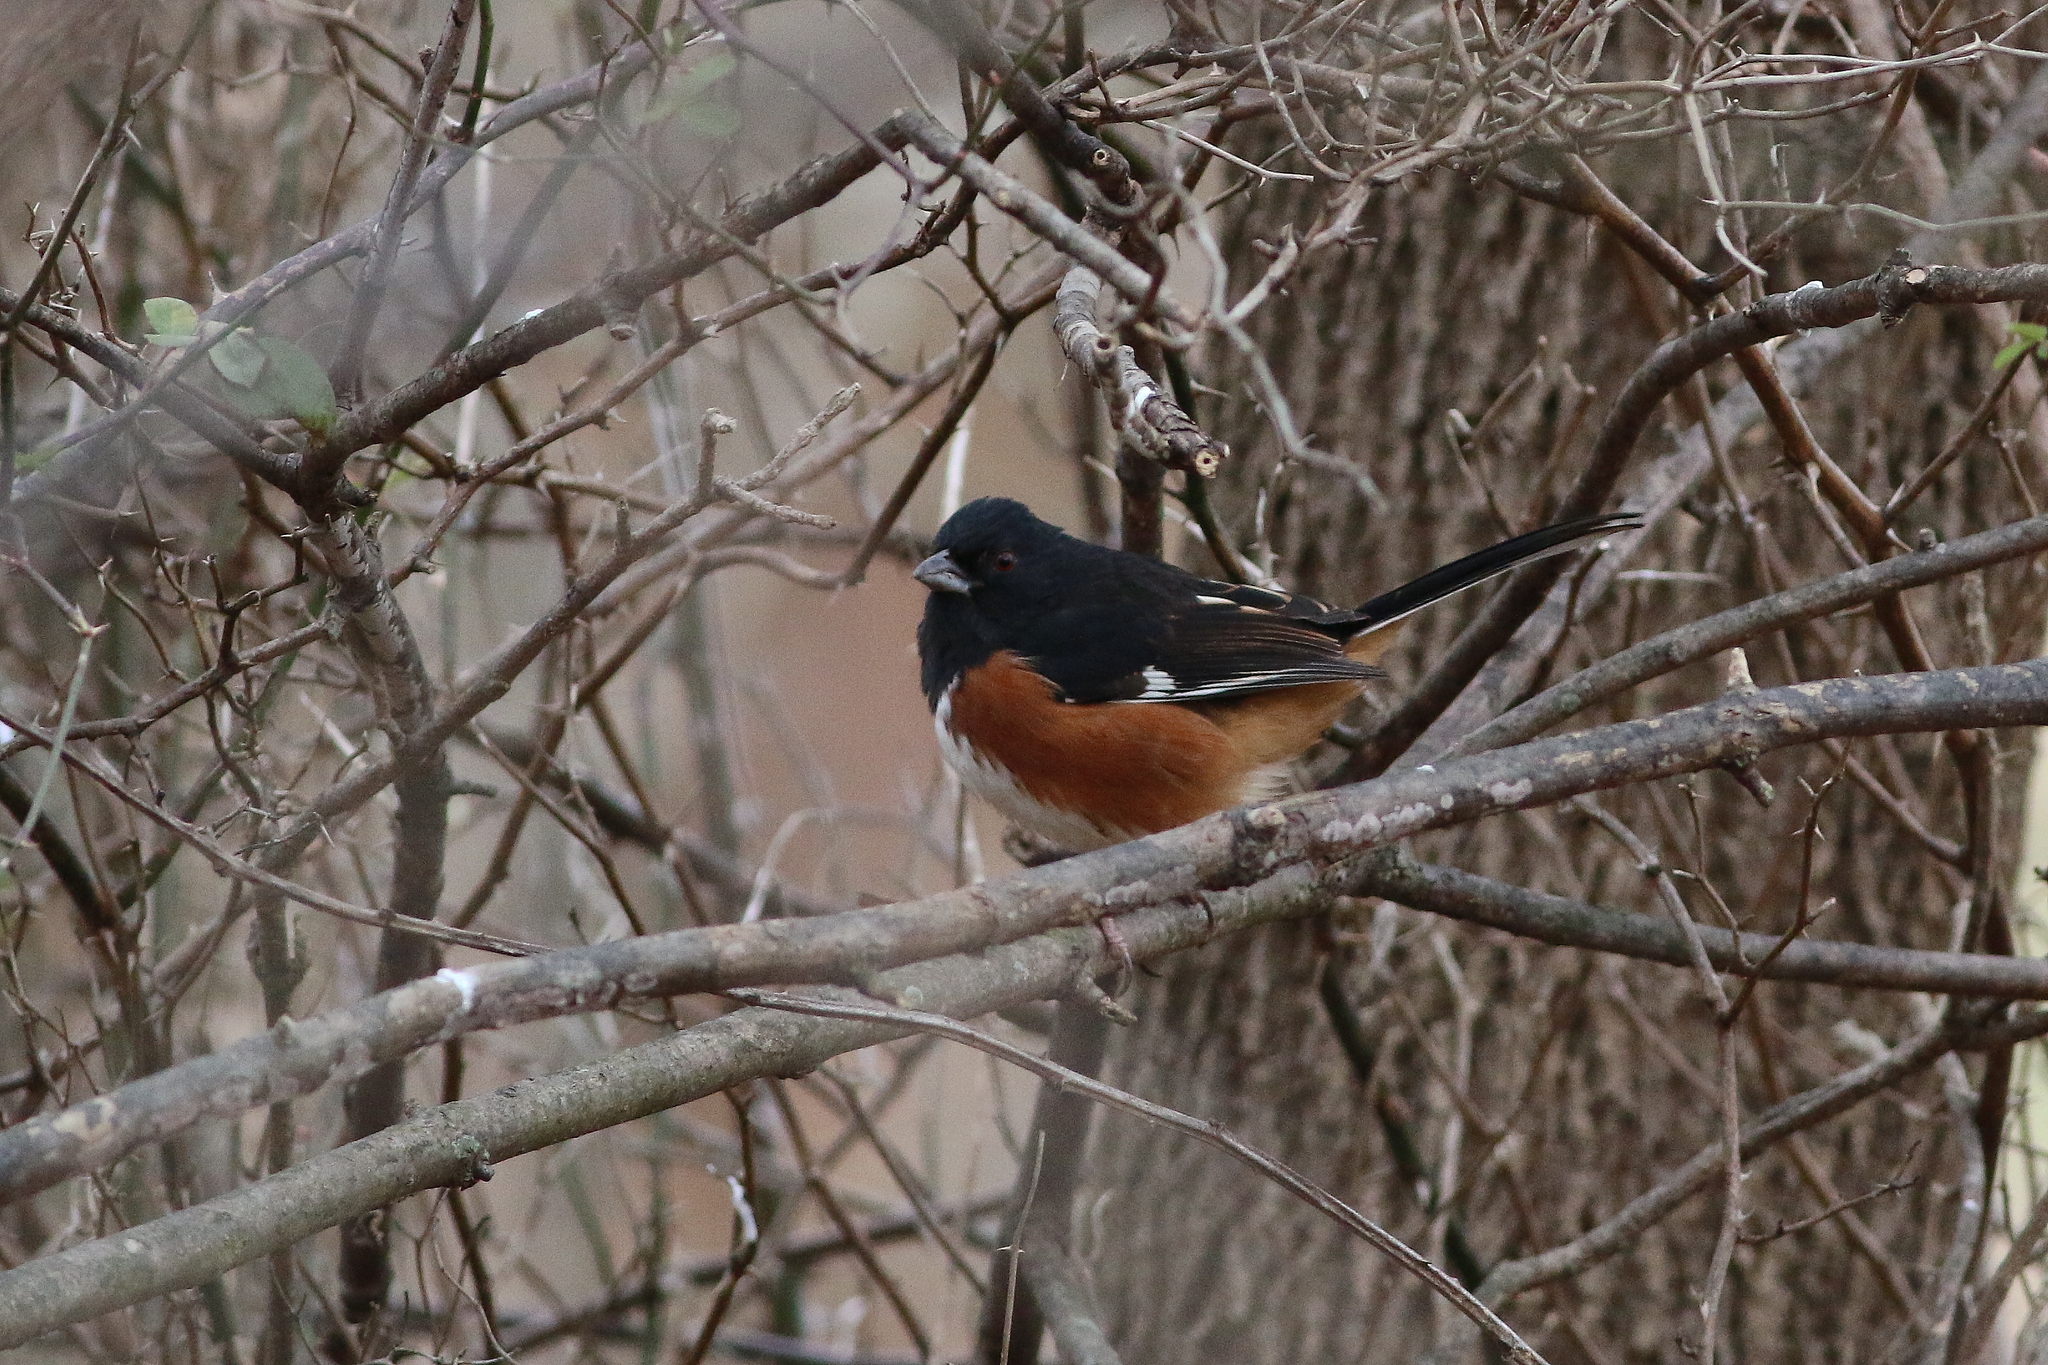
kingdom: Animalia
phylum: Chordata
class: Aves
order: Passeriformes
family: Passerellidae
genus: Pipilo
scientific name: Pipilo erythrophthalmus
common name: Eastern towhee
